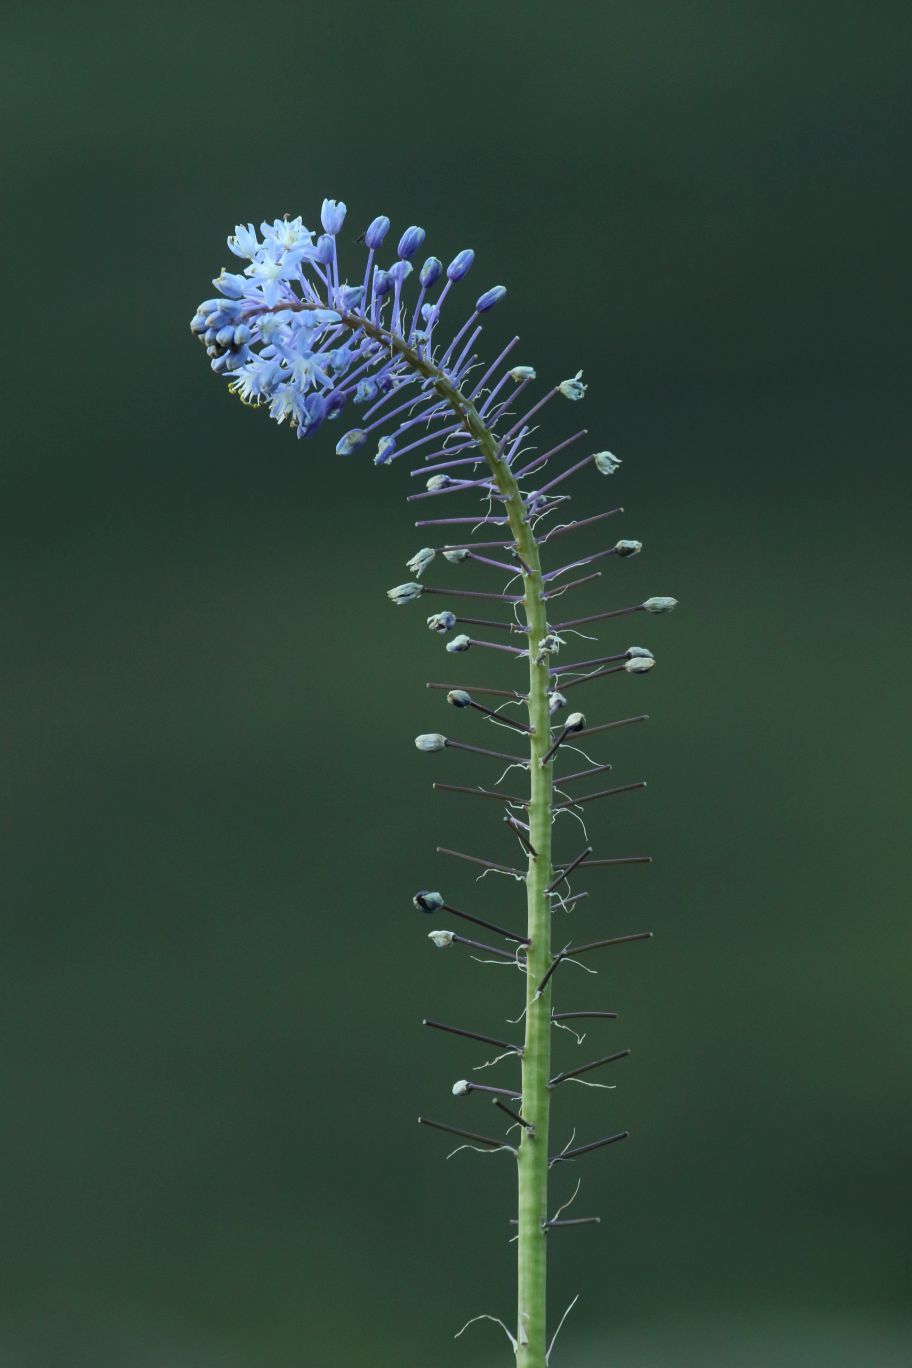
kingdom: Plantae
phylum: Tracheophyta
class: Liliopsida
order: Asparagales
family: Asparagaceae
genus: Merwilla
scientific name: Merwilla plumbea
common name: Blue-squill
